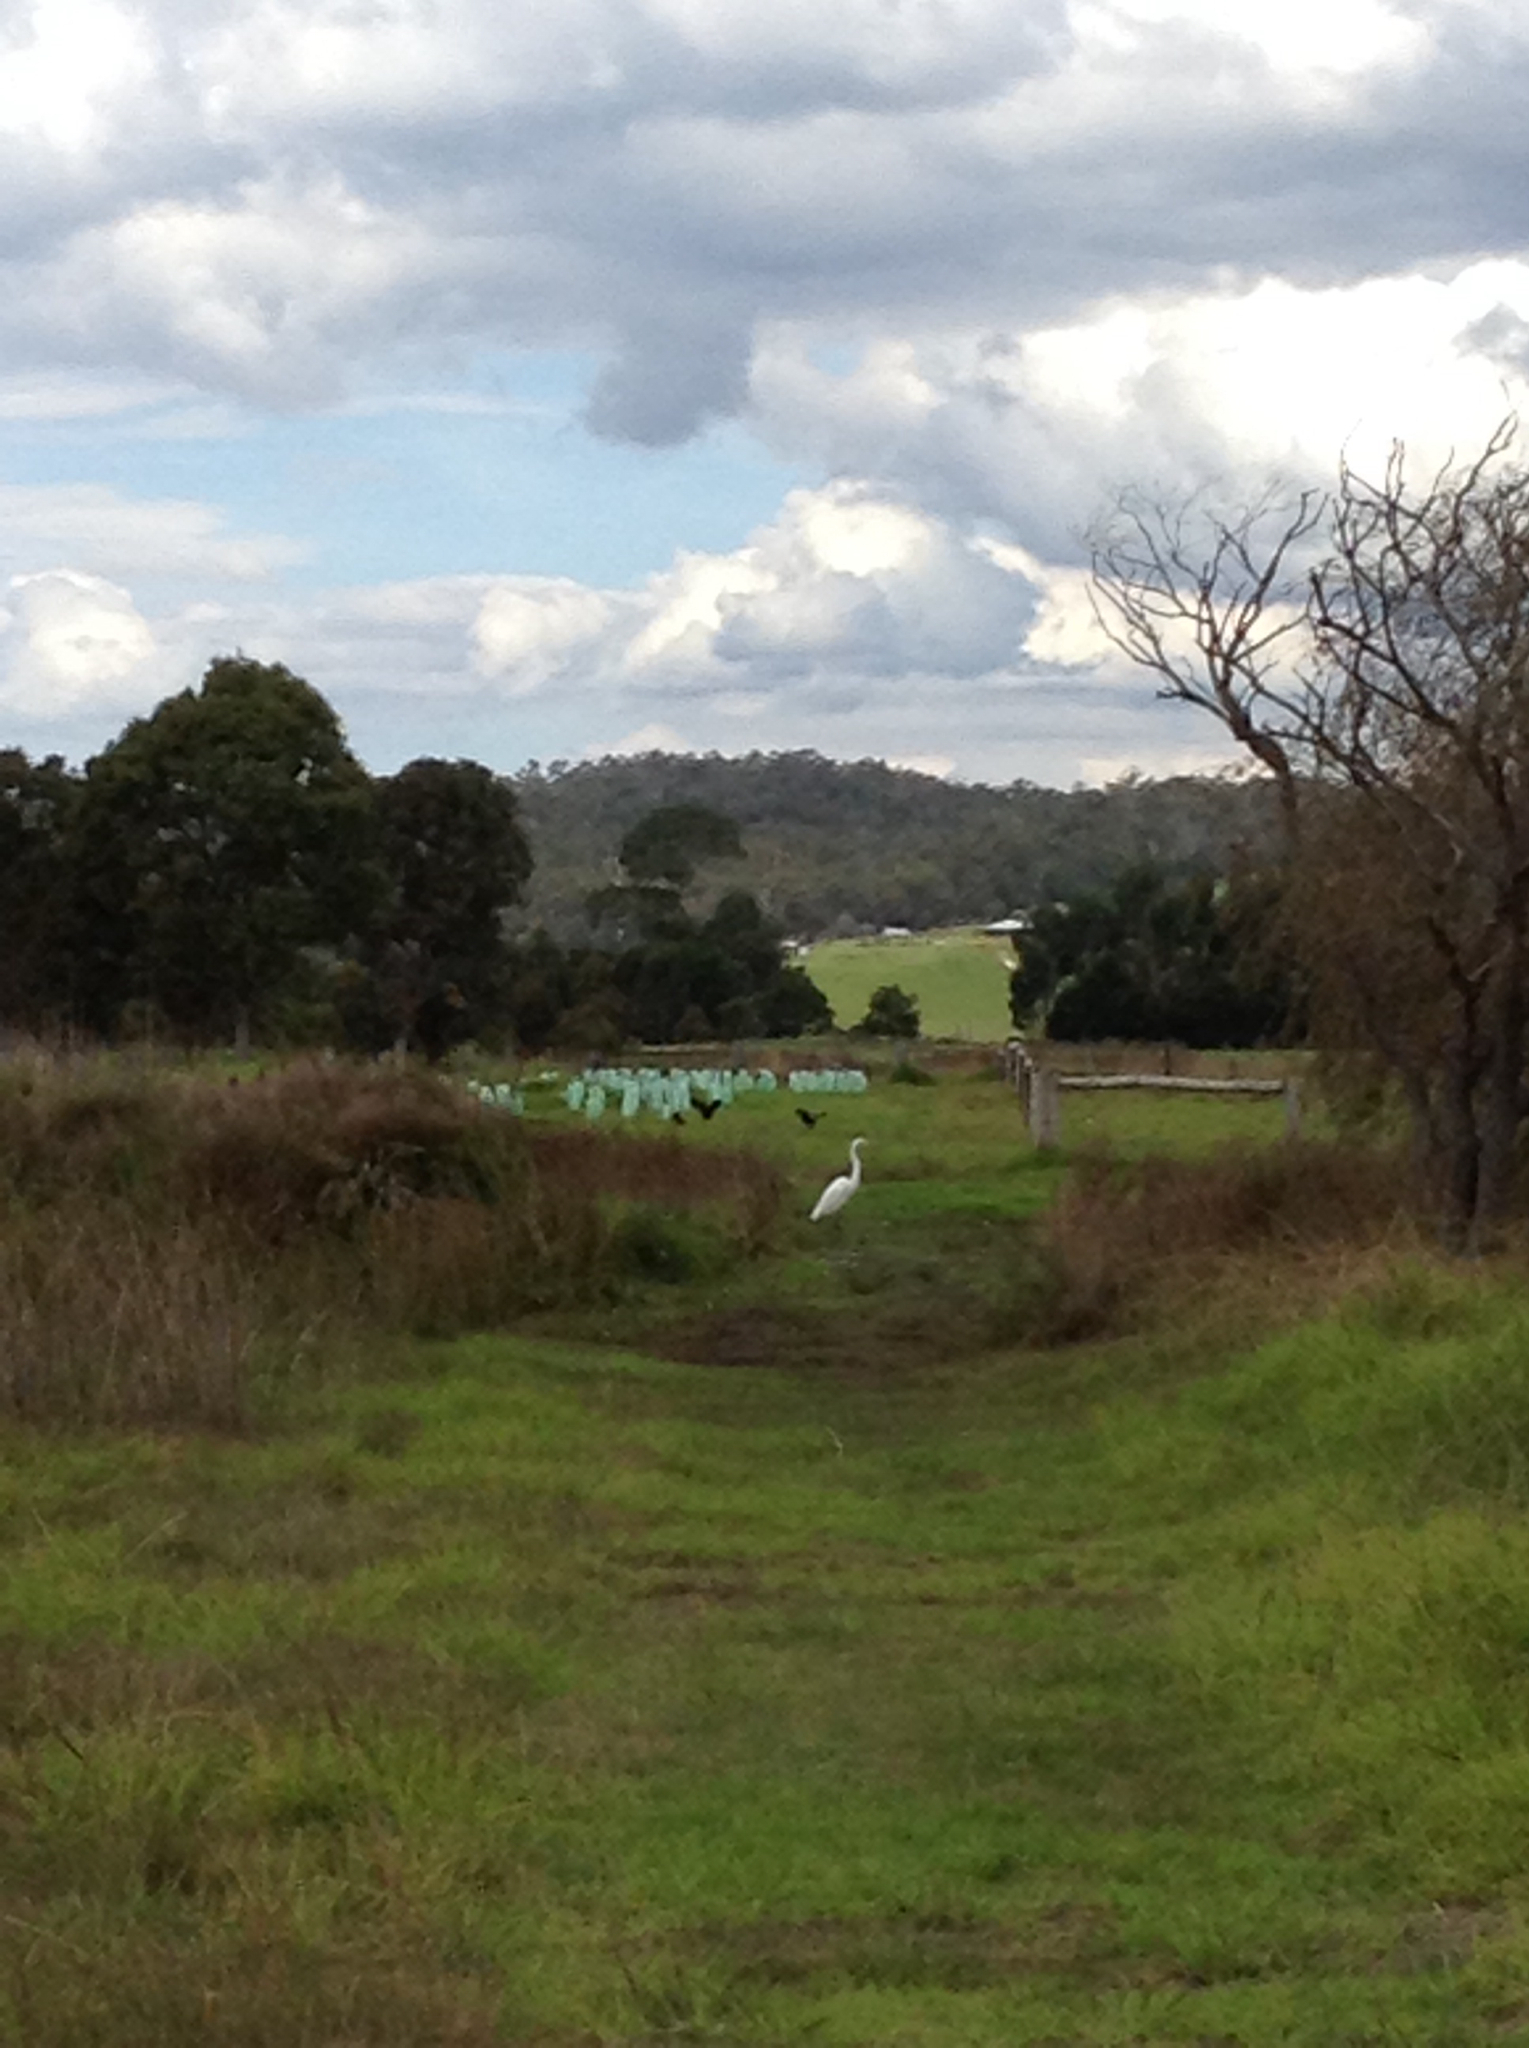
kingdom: Animalia
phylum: Chordata
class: Aves
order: Pelecaniformes
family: Ardeidae
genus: Ardea
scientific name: Ardea alba
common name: Great egret
